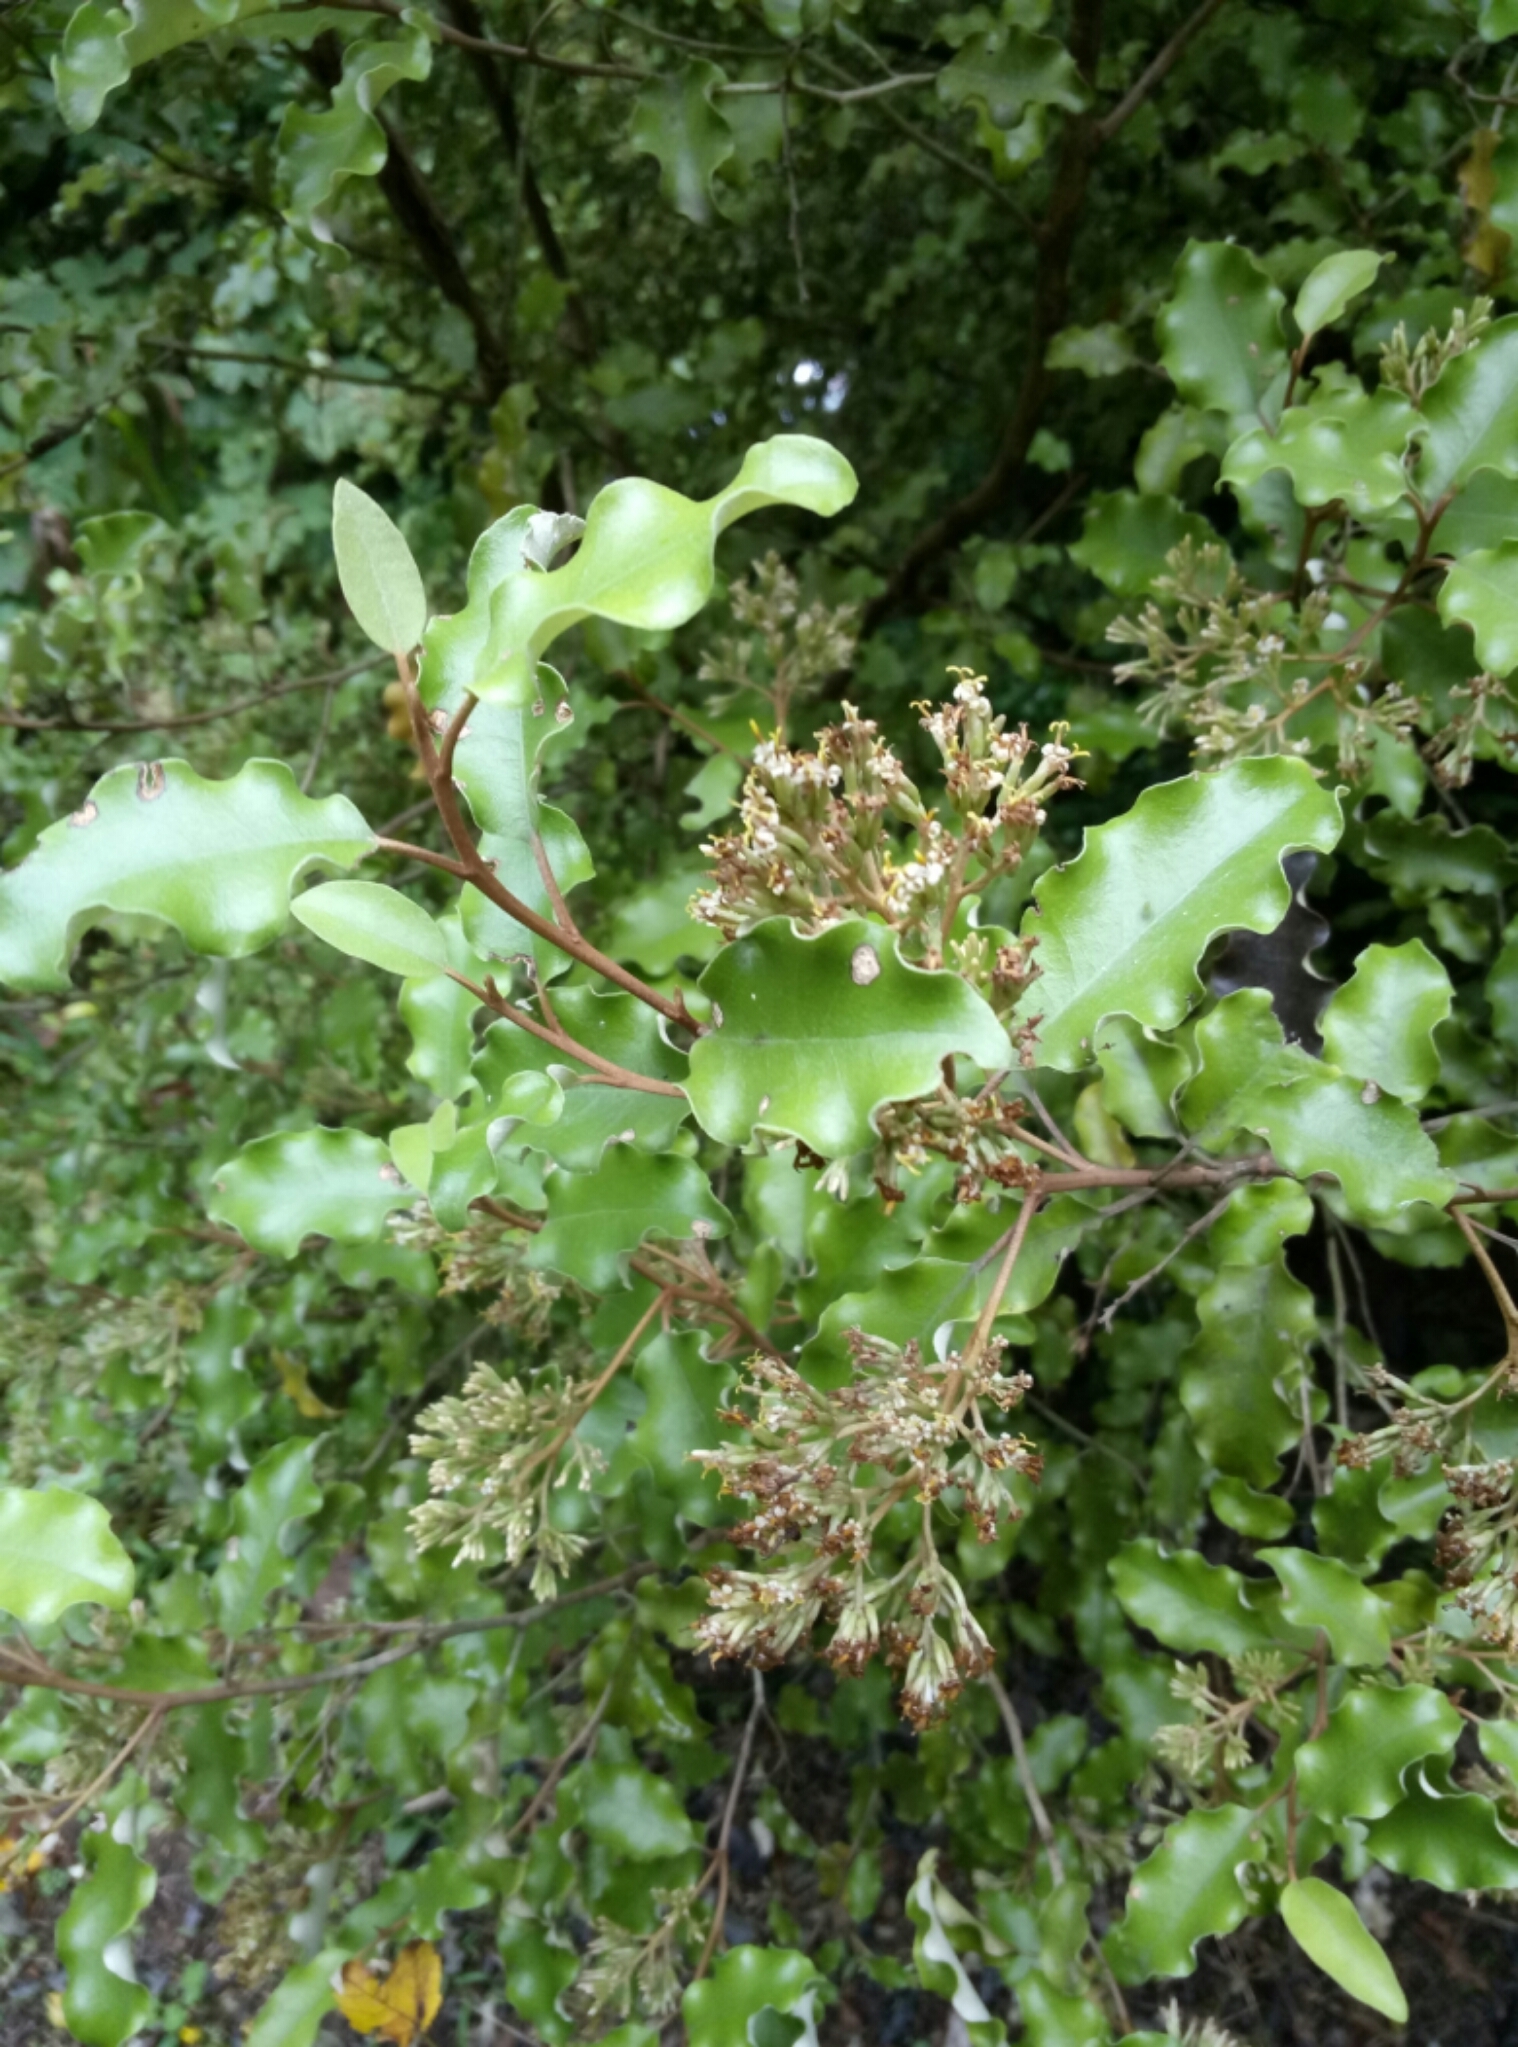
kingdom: Plantae
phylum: Tracheophyta
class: Magnoliopsida
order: Asterales
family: Asteraceae
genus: Olearia
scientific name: Olearia paniculata
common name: Akiraho
